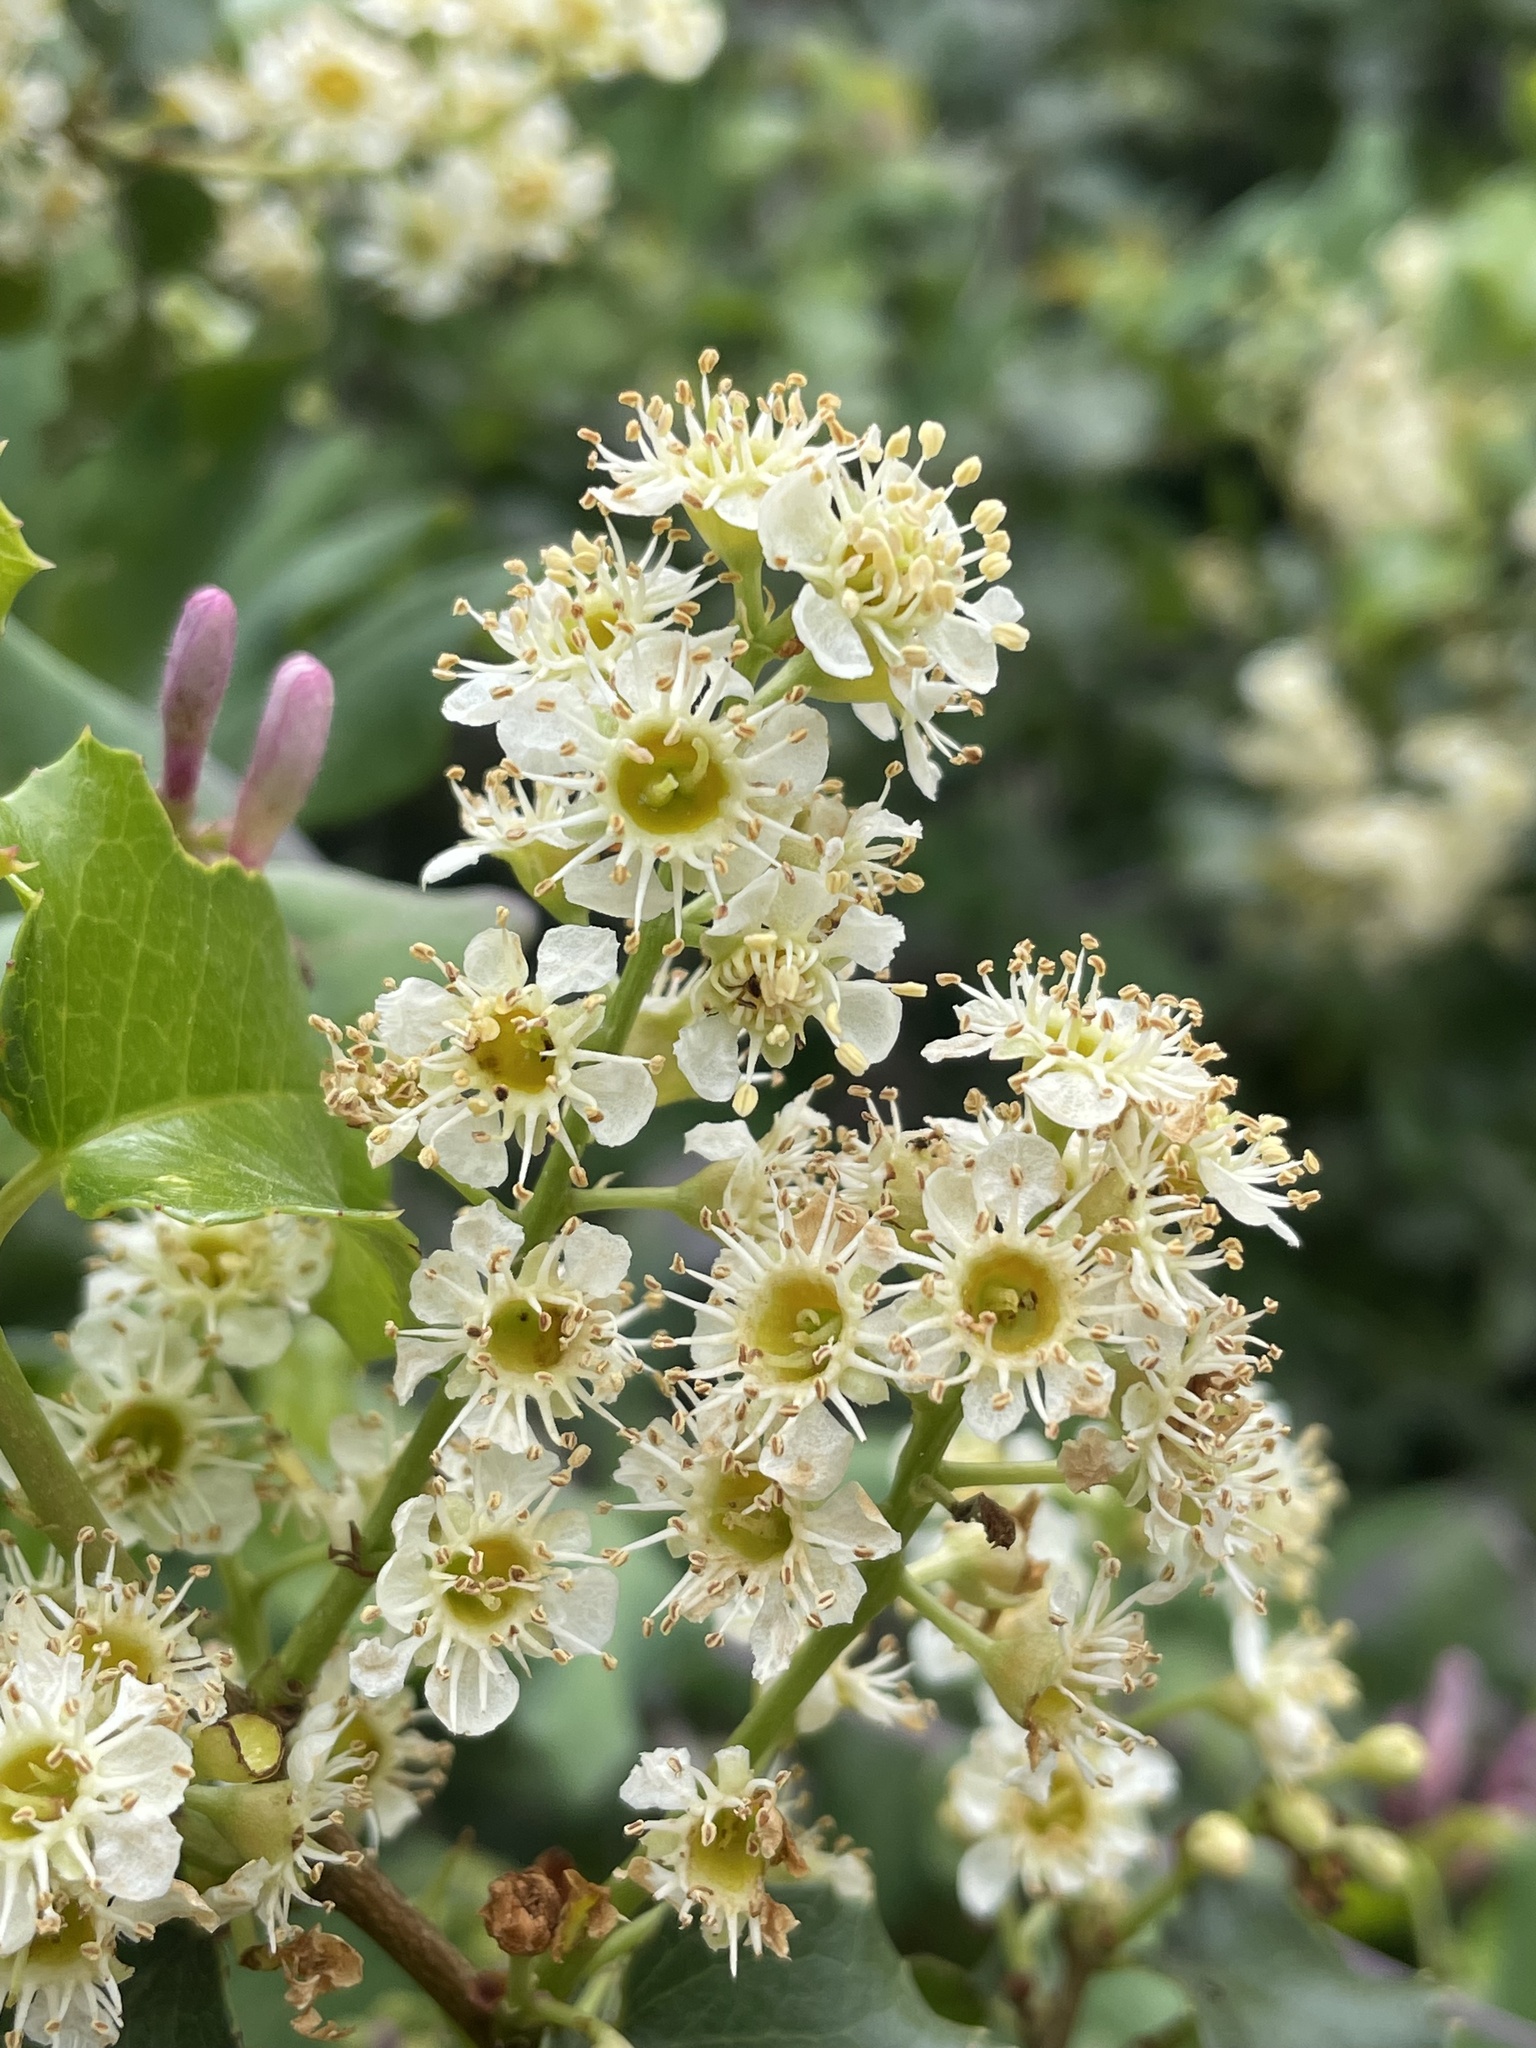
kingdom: Plantae
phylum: Tracheophyta
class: Magnoliopsida
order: Rosales
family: Rosaceae
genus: Prunus
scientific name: Prunus ilicifolia
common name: Hollyleaf cherry
